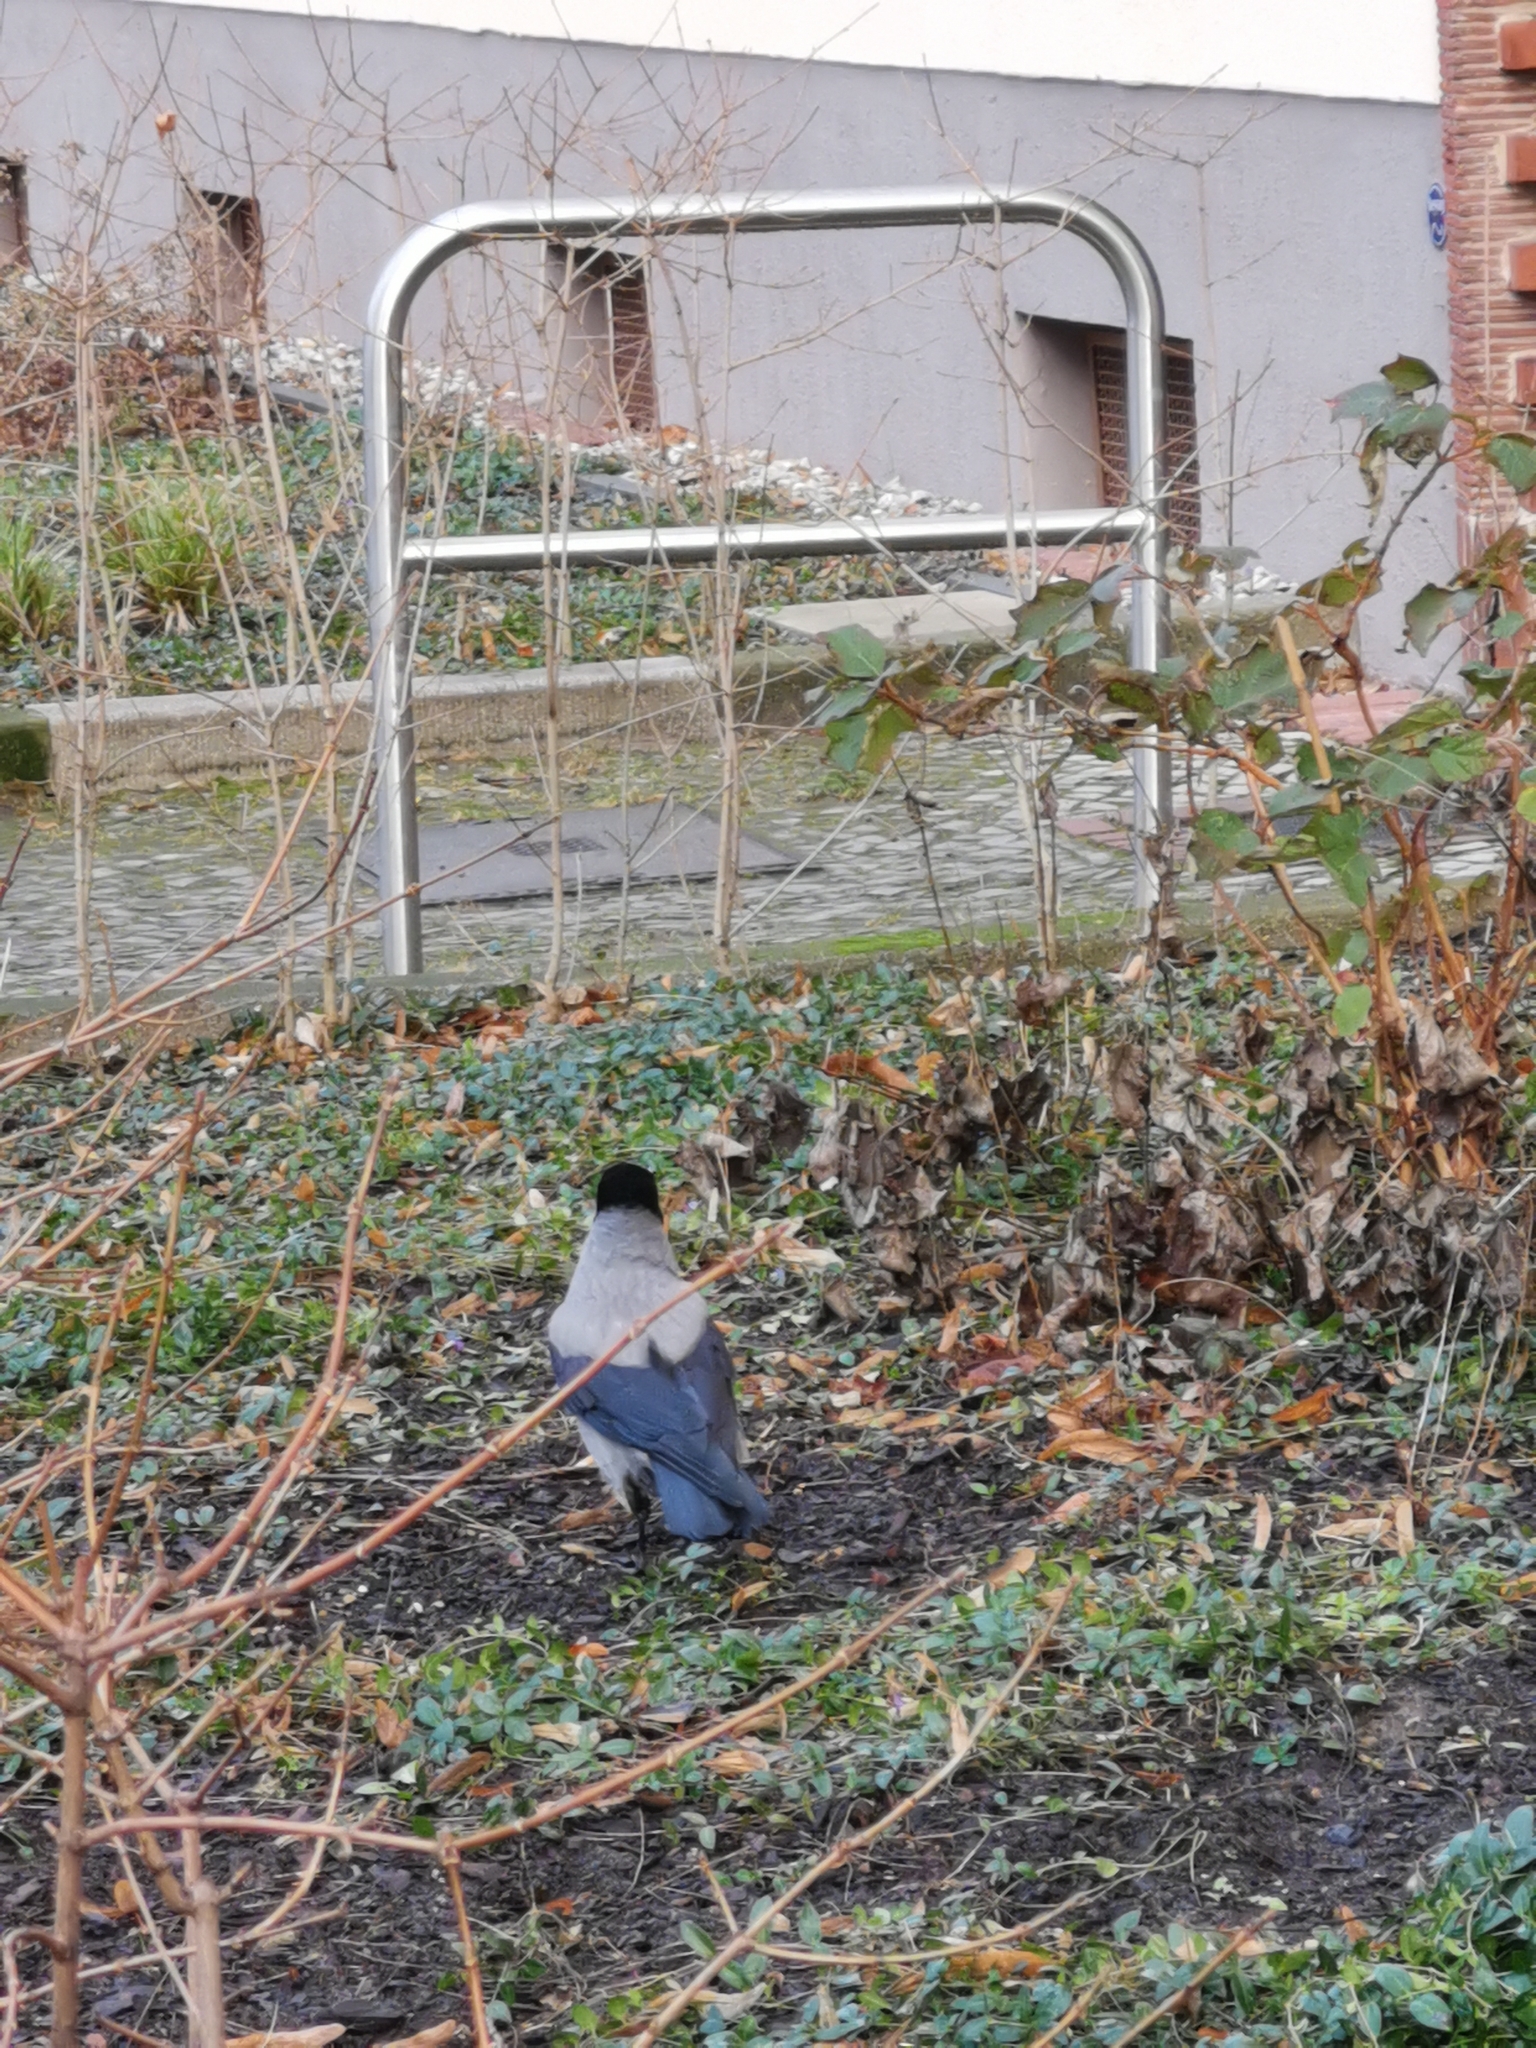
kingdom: Animalia
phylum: Chordata
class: Aves
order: Passeriformes
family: Corvidae
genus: Corvus
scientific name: Corvus cornix
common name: Hooded crow
